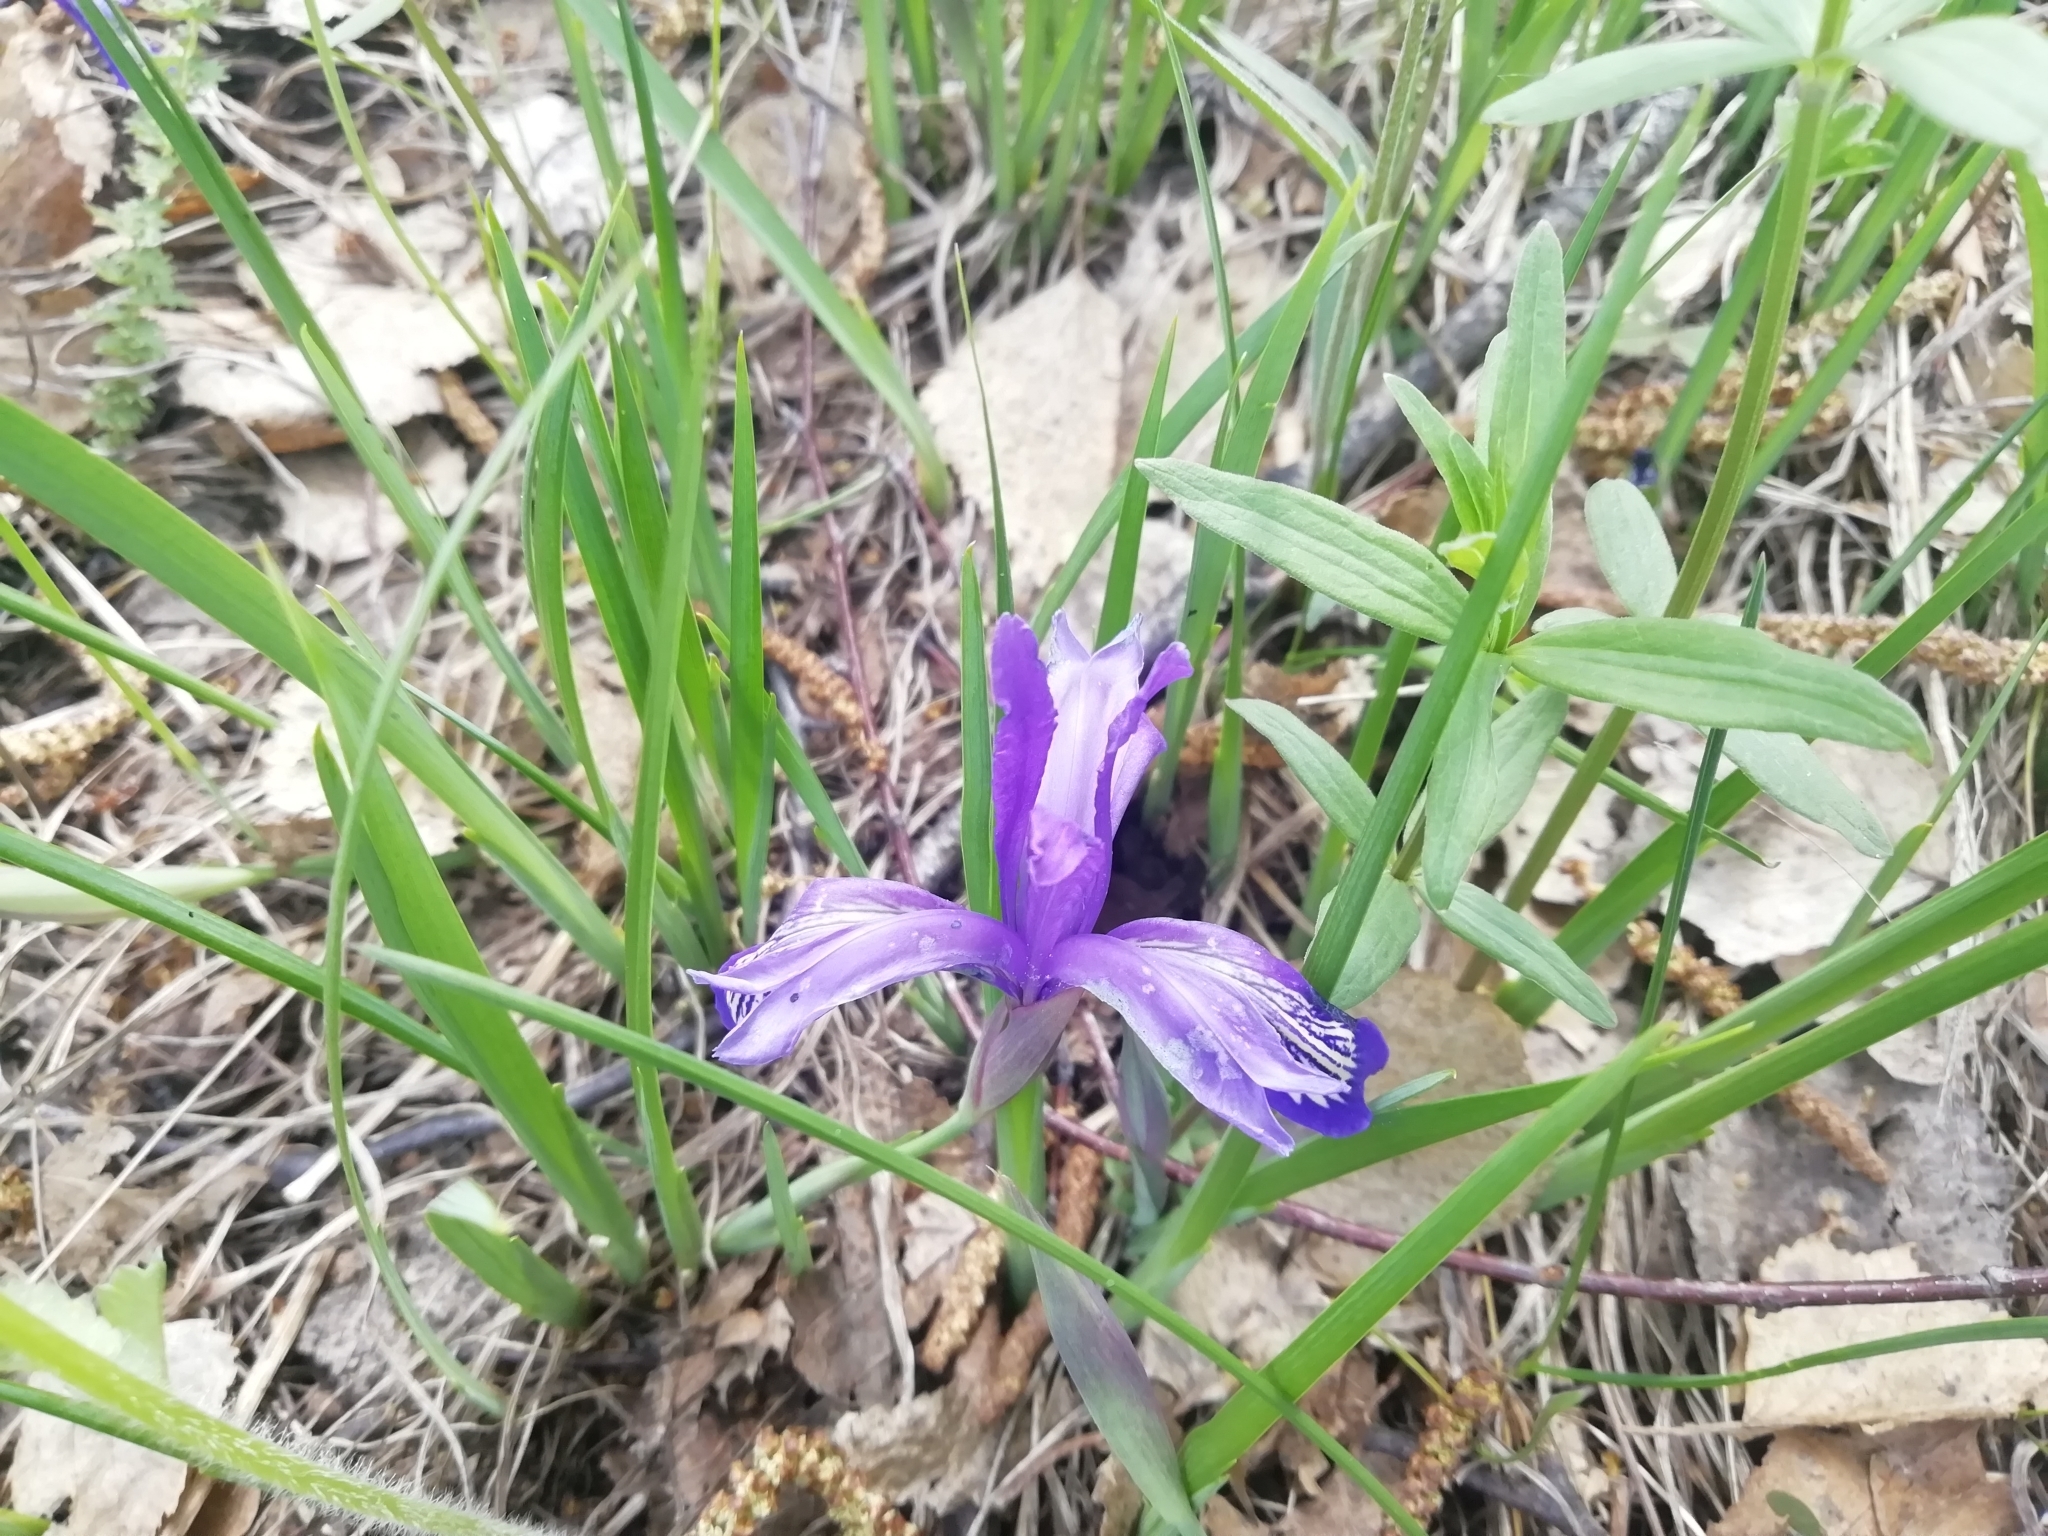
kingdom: Plantae
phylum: Tracheophyta
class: Liliopsida
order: Asparagales
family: Iridaceae
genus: Iris
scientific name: Iris ruthenica
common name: Purple-bract iris
